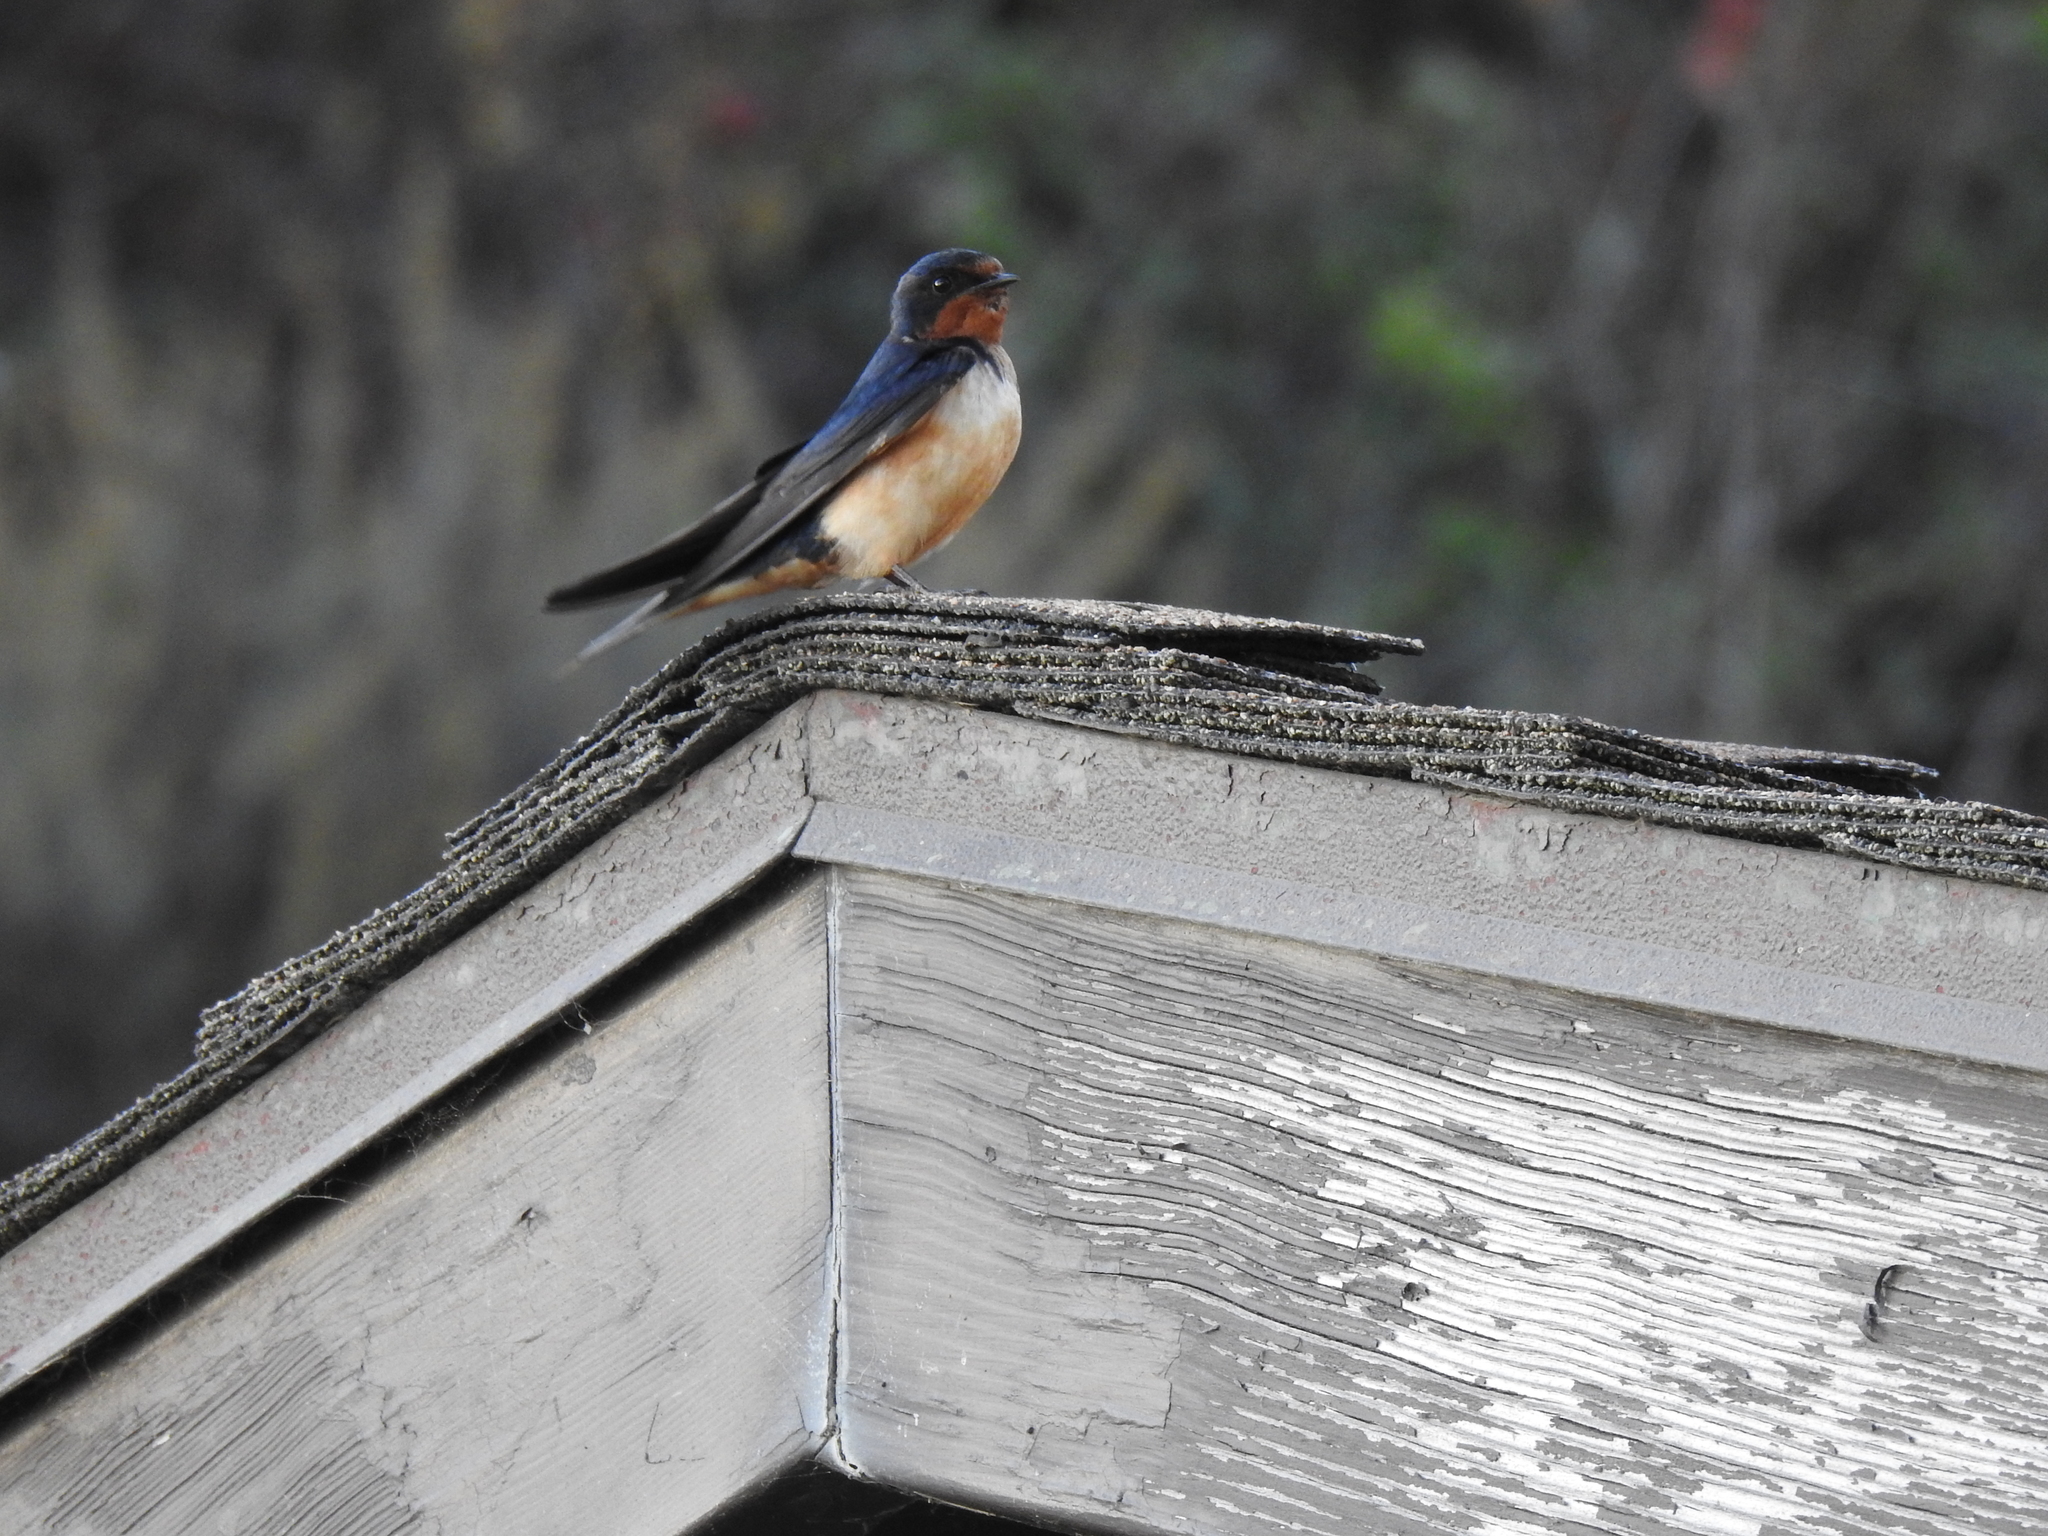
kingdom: Animalia
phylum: Chordata
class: Aves
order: Passeriformes
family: Hirundinidae
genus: Hirundo
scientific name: Hirundo rustica
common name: Barn swallow
